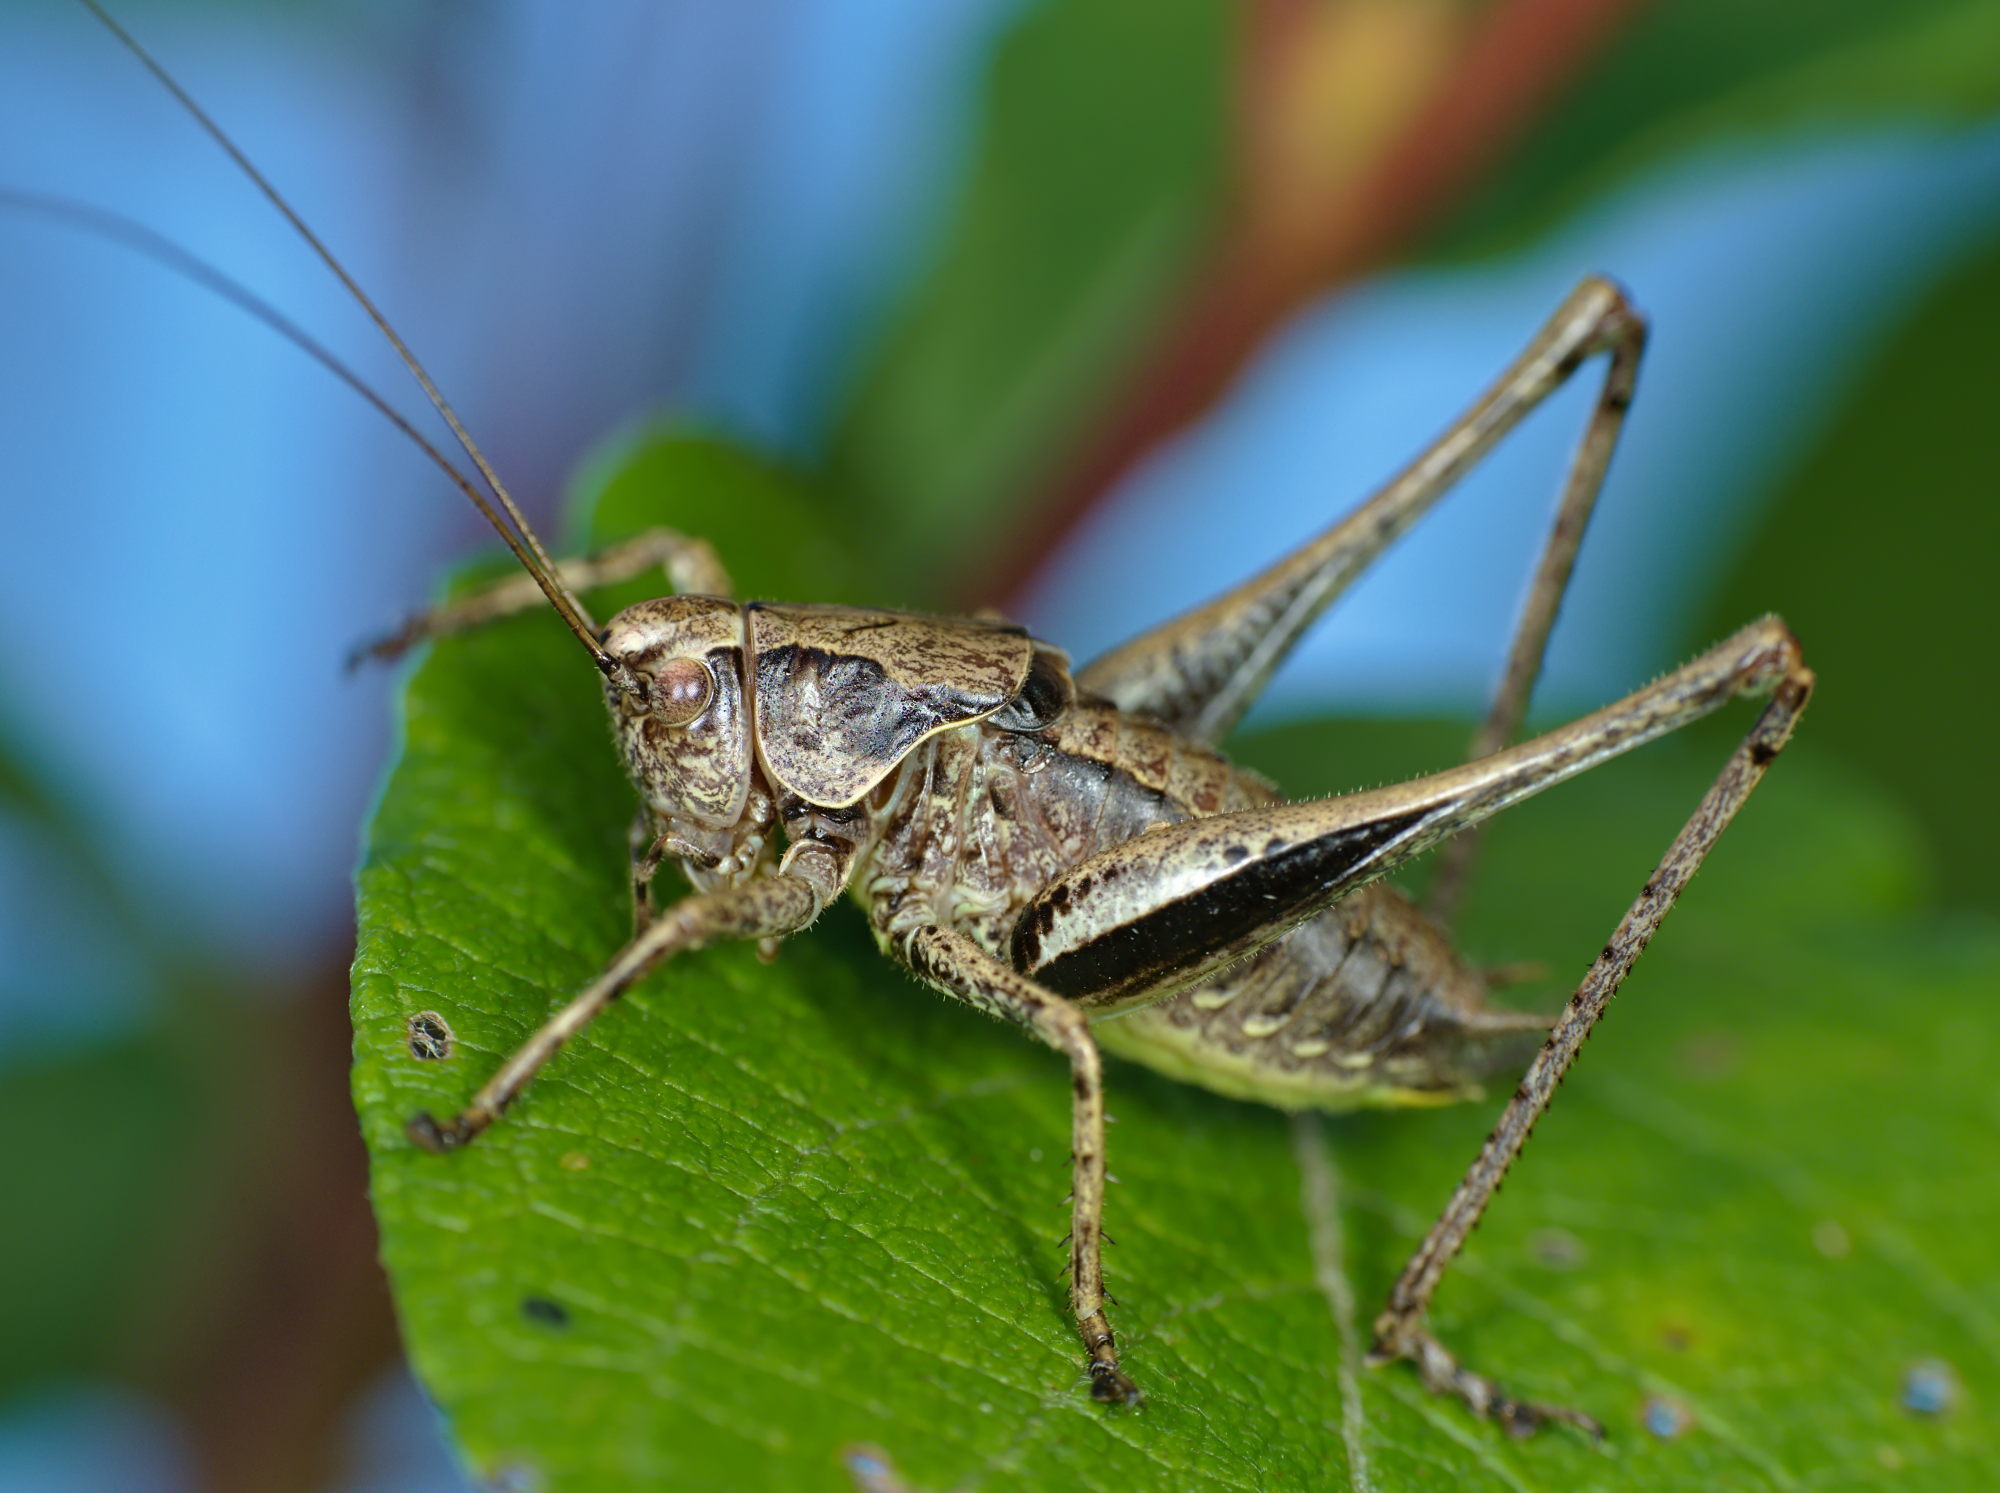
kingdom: Animalia
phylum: Arthropoda
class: Insecta
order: Orthoptera
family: Tettigoniidae
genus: Pholidoptera
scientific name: Pholidoptera griseoaptera
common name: Dark bush-cricket
